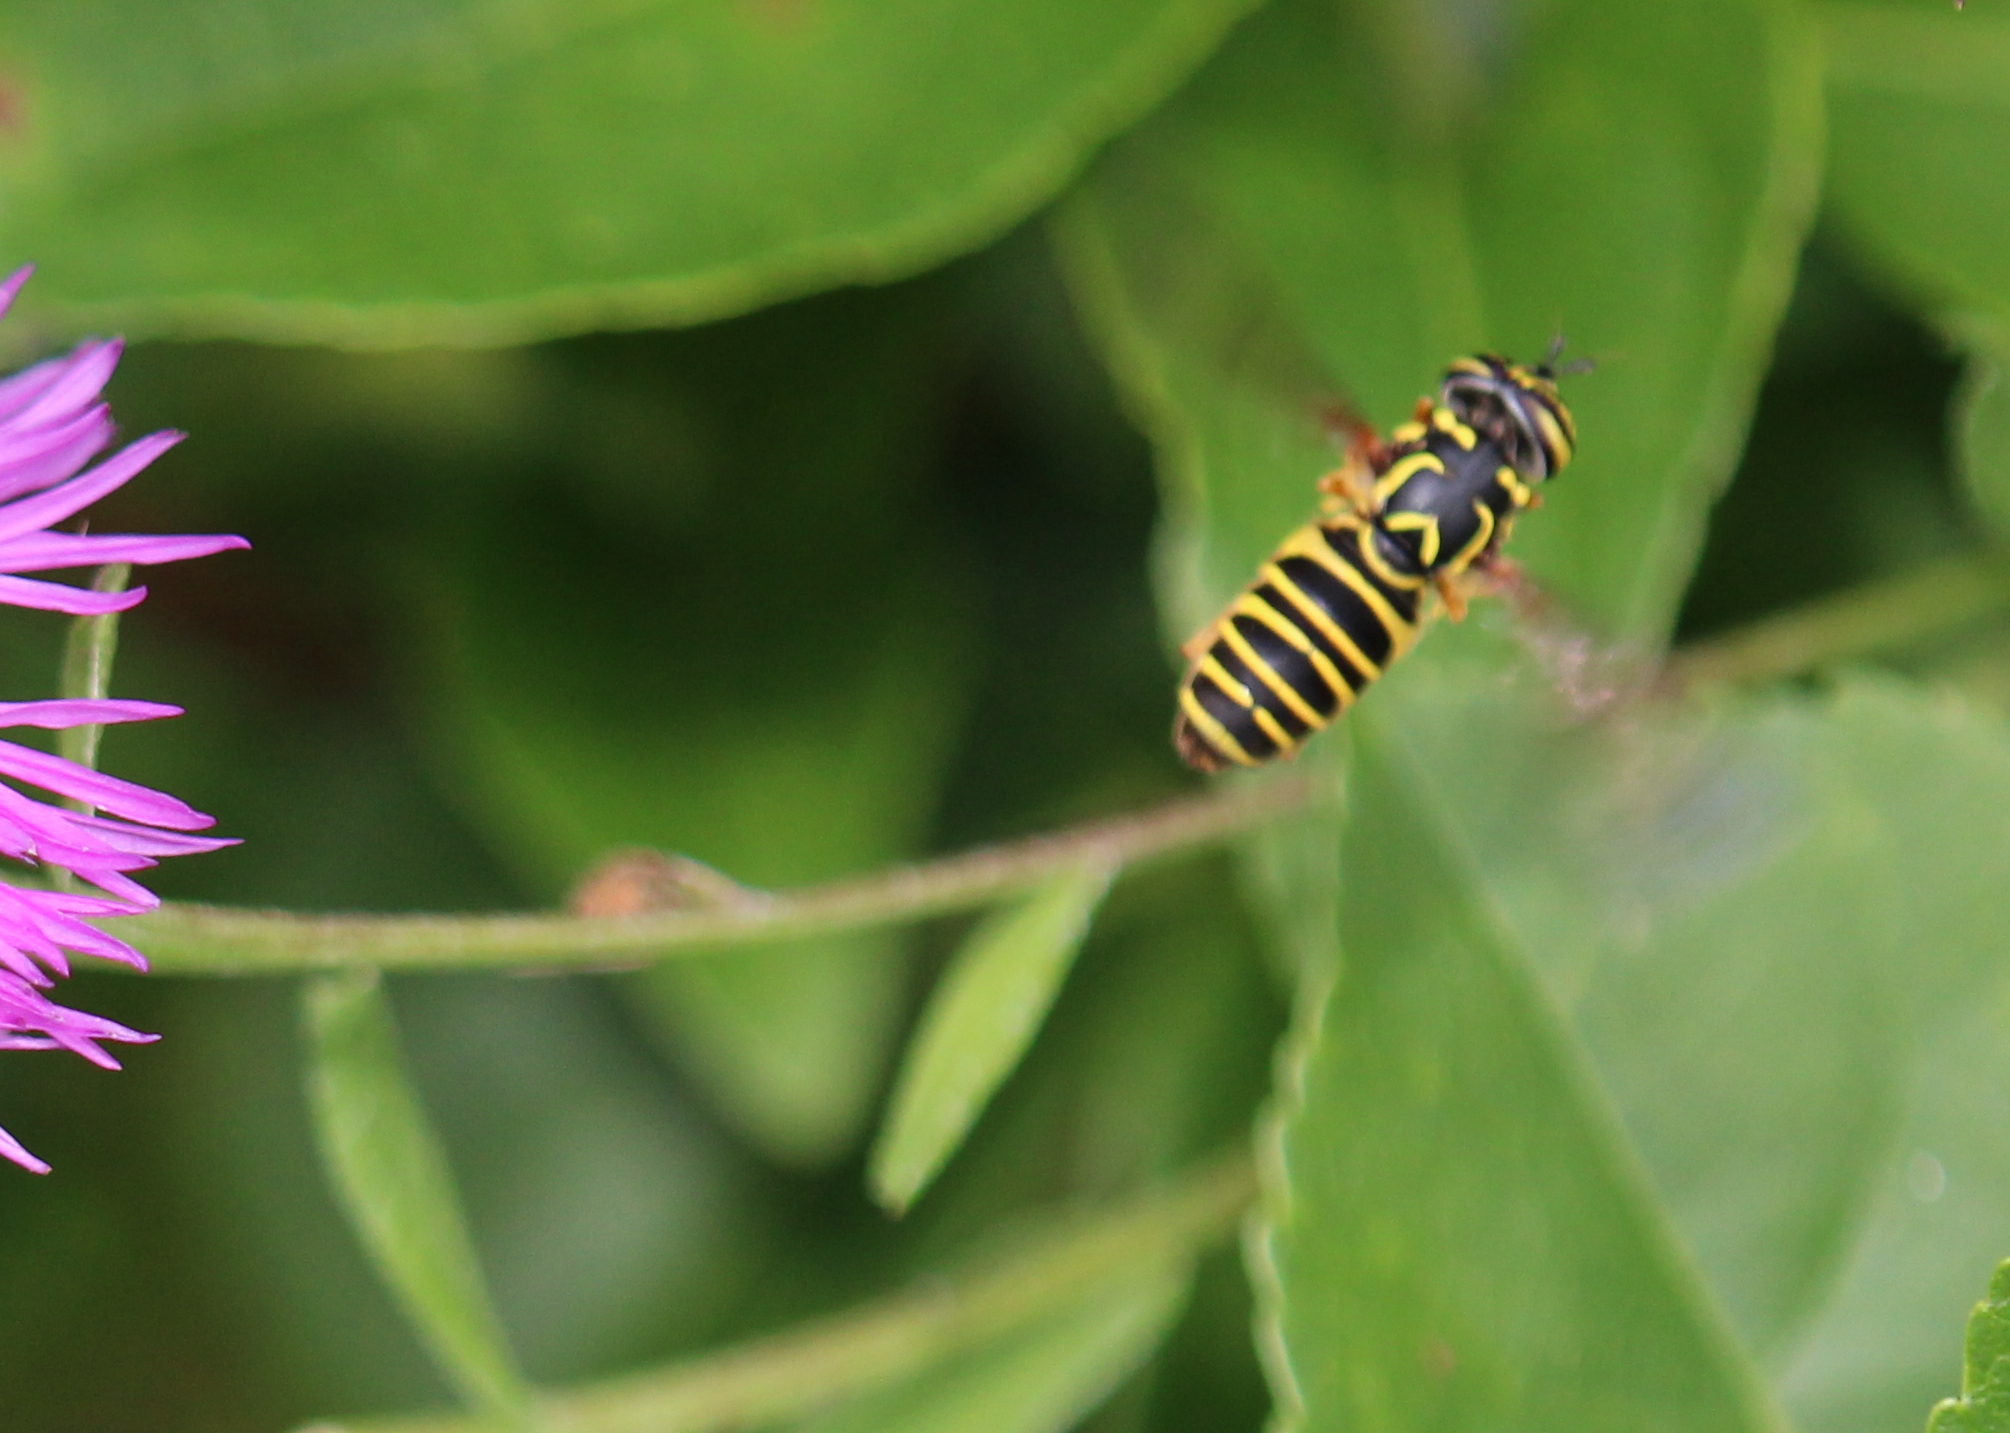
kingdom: Animalia
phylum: Arthropoda
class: Insecta
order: Diptera
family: Syrphidae
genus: Spilomyia
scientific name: Spilomyia longicornis
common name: Eastern hornet fly
